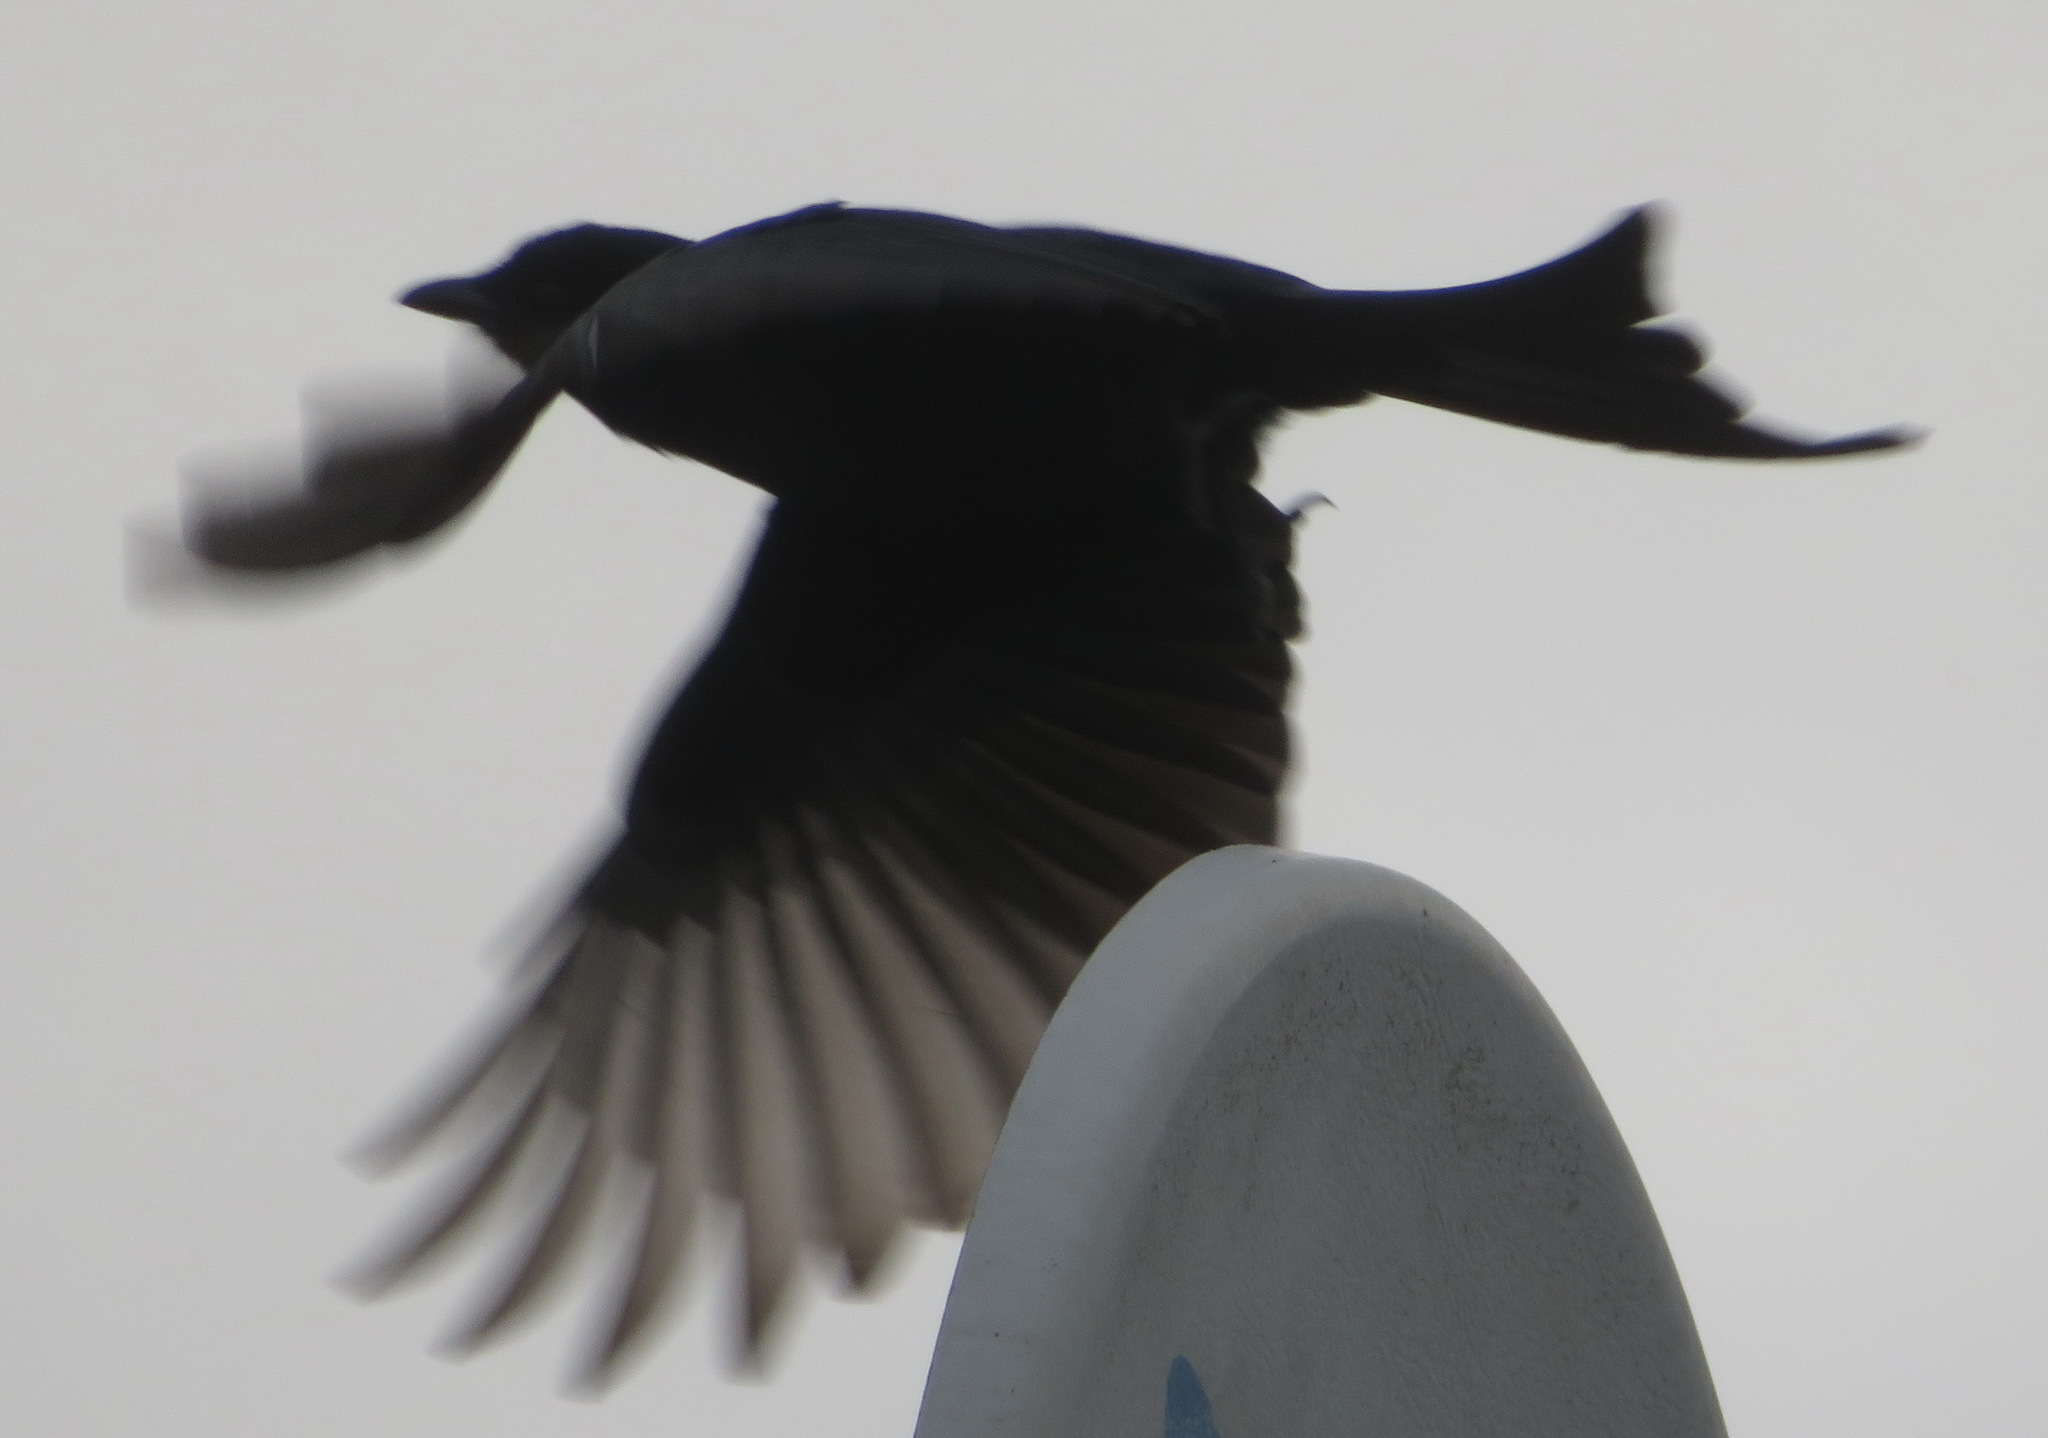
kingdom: Animalia
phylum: Chordata
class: Aves
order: Passeriformes
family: Dicruridae
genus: Dicrurus
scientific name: Dicrurus adsimilis
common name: Fork-tailed drongo
